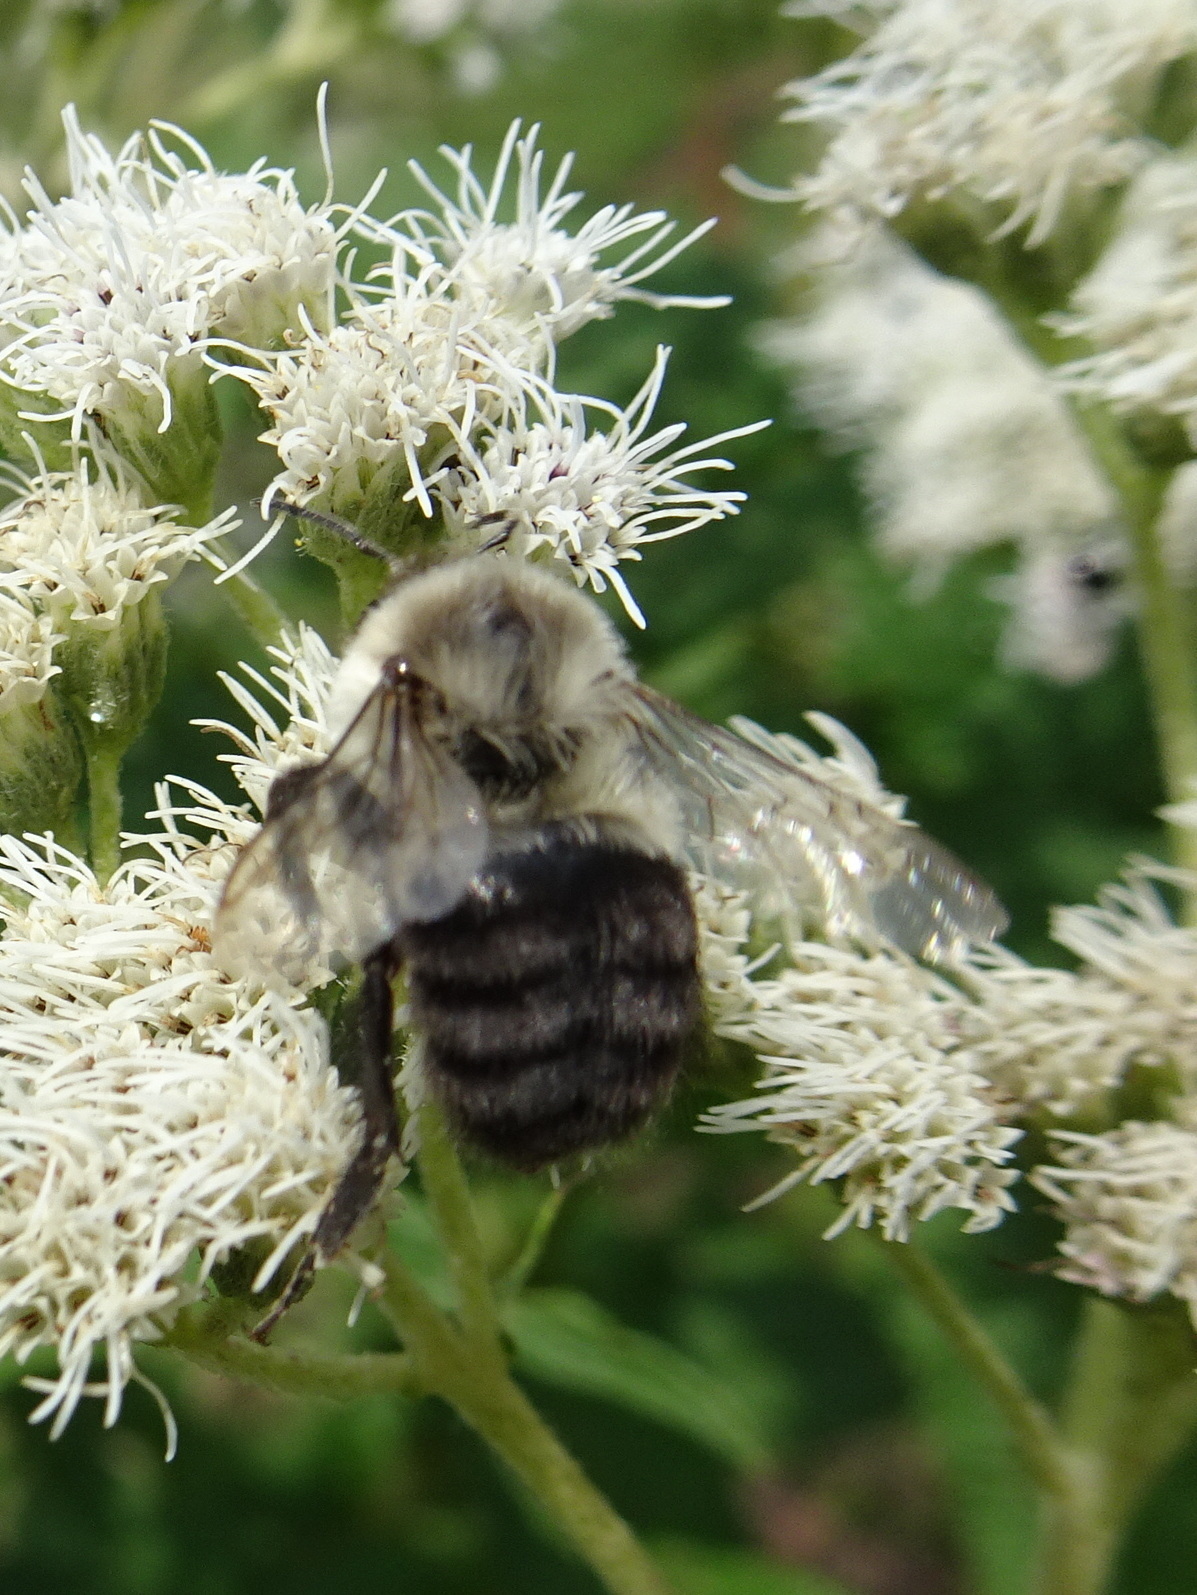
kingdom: Animalia
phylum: Arthropoda
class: Insecta
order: Hymenoptera
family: Apidae
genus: Bombus
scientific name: Bombus impatiens
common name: Common eastern bumble bee
